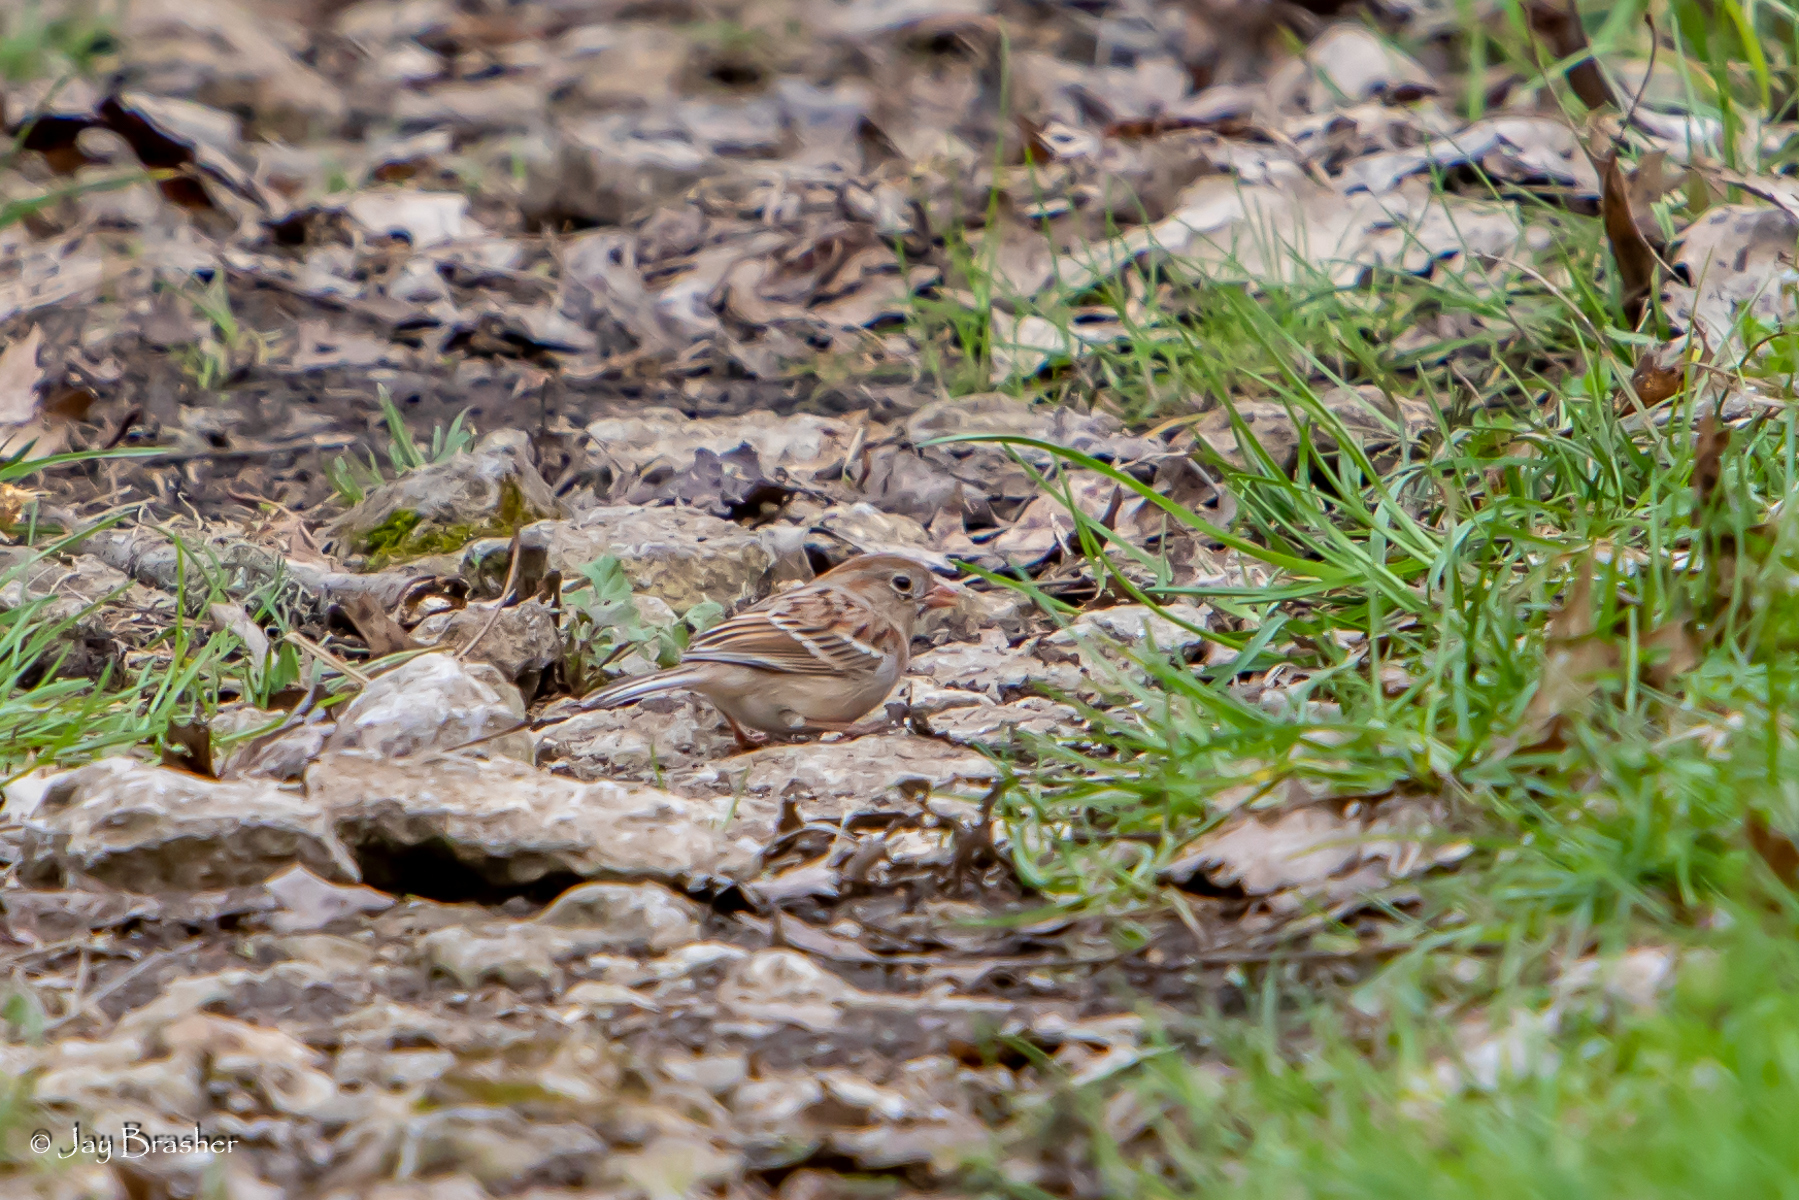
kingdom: Animalia
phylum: Chordata
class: Aves
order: Passeriformes
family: Passerellidae
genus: Spizella
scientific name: Spizella pusilla
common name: Field sparrow
